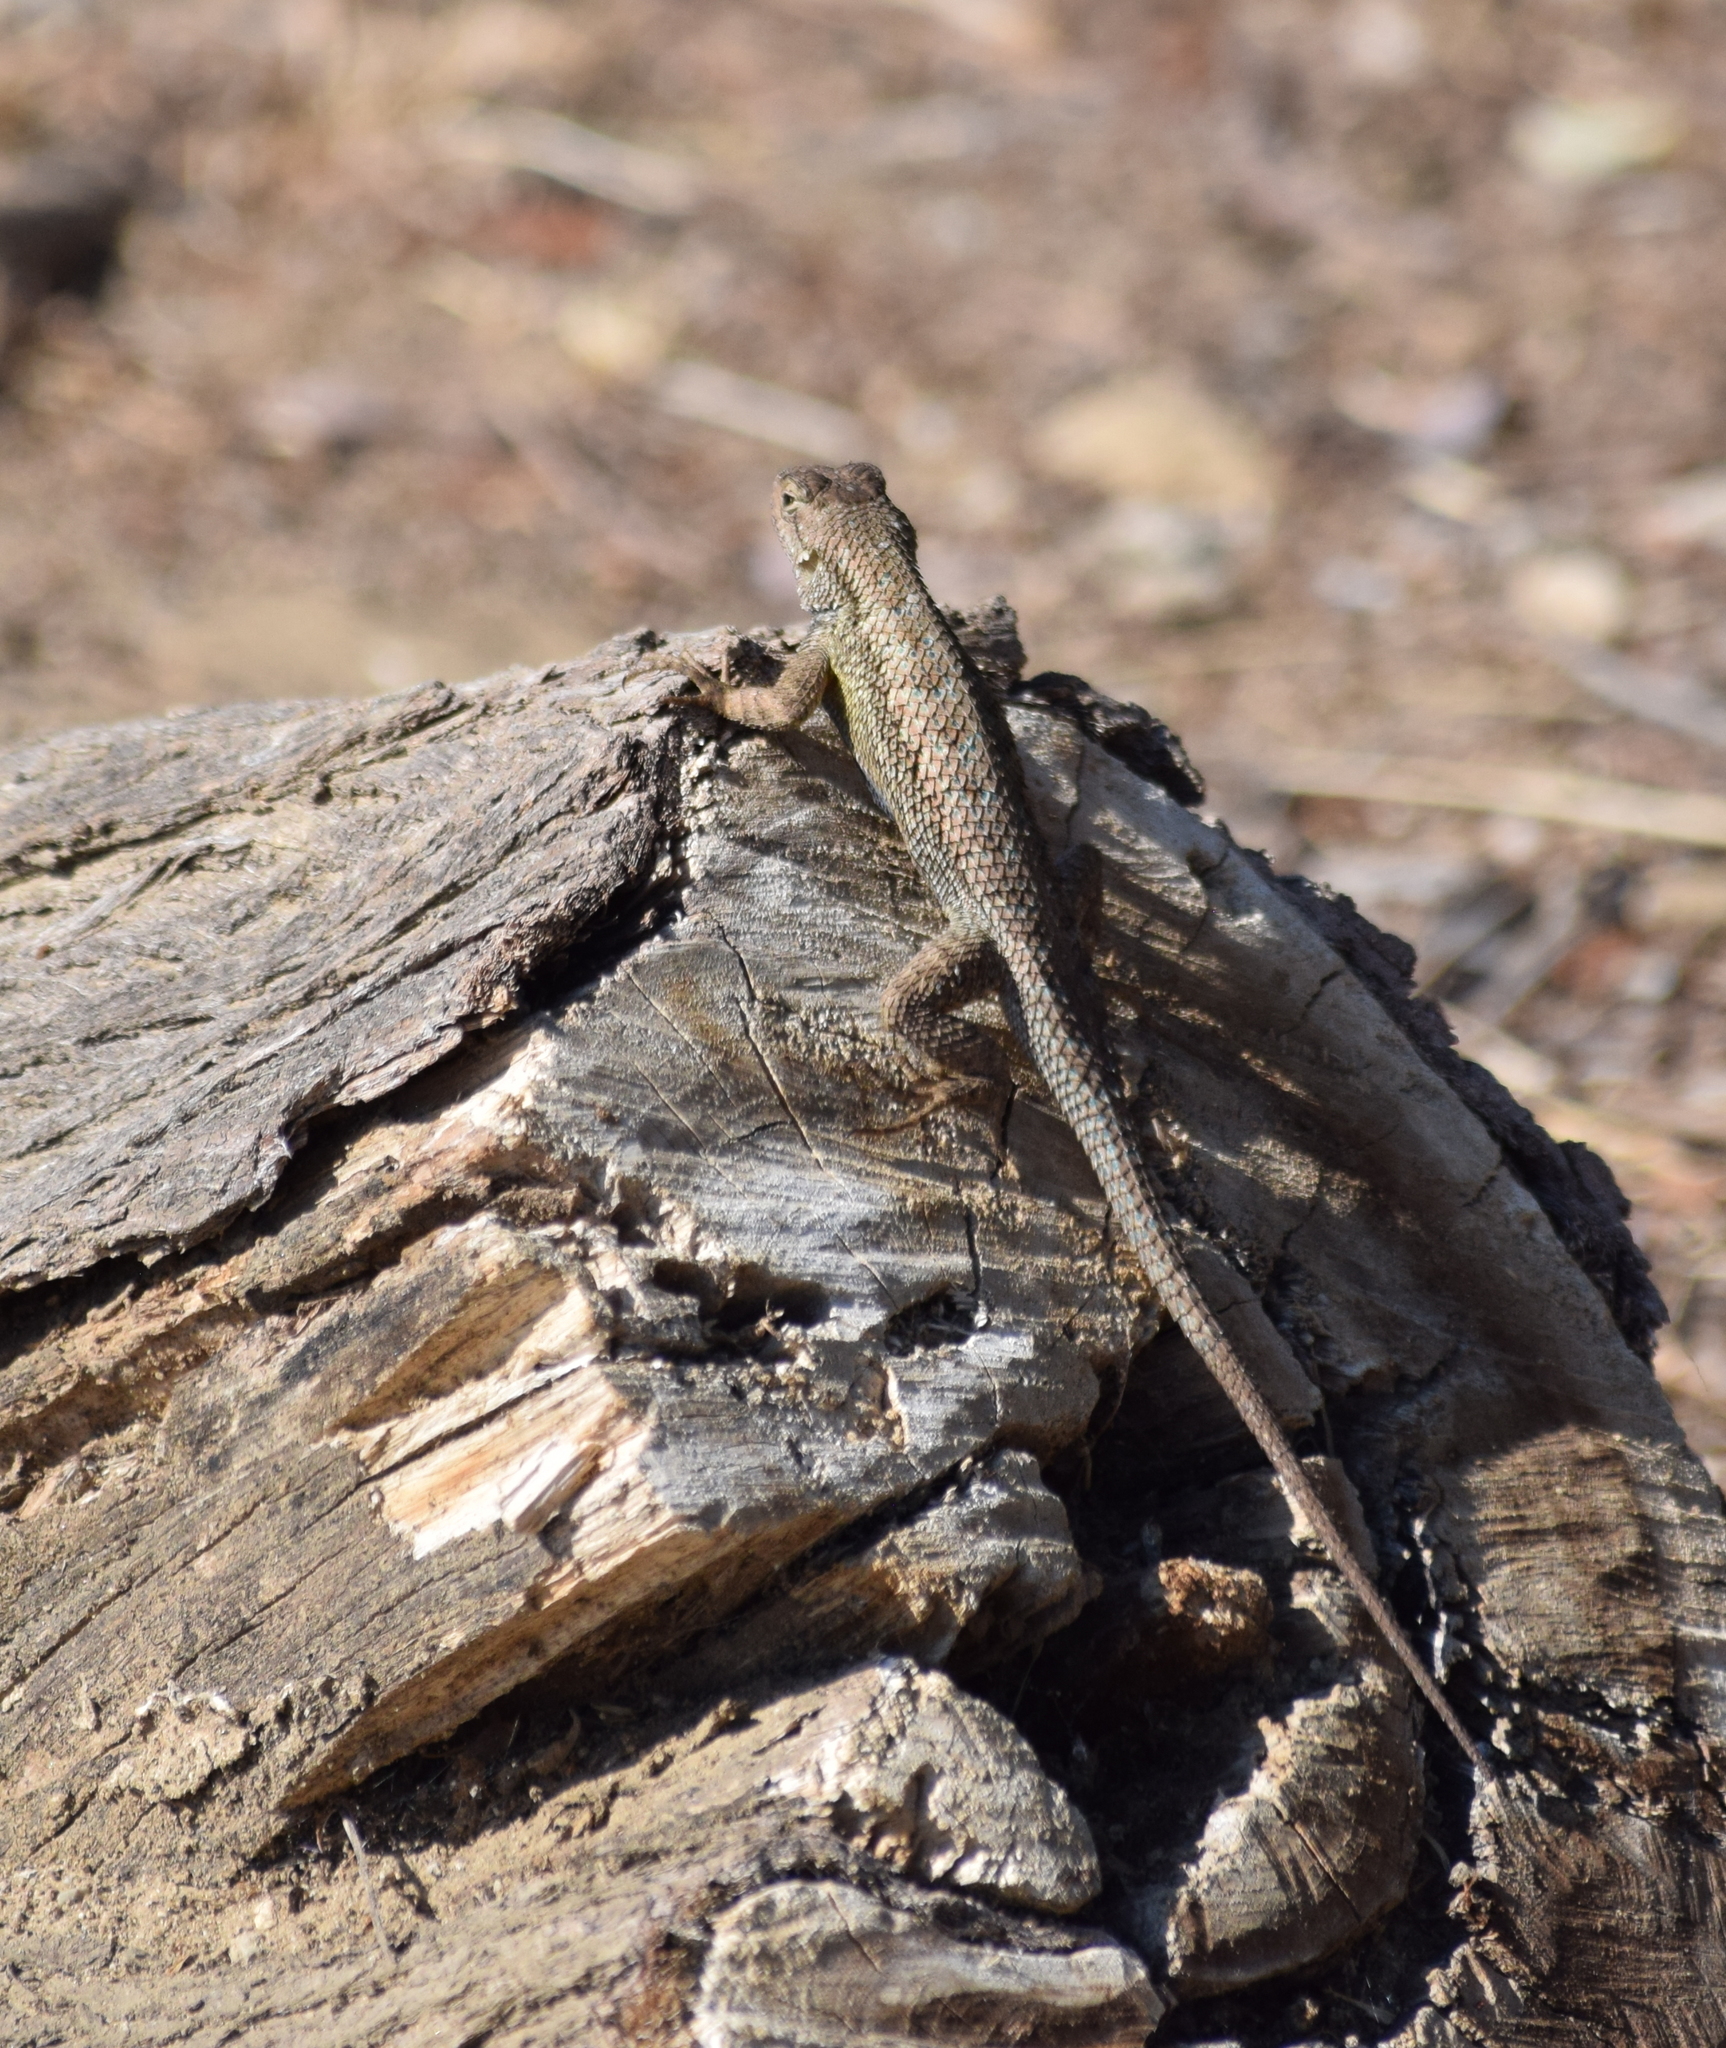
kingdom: Animalia
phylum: Chordata
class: Squamata
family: Phrynosomatidae
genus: Sceloporus
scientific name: Sceloporus occidentalis
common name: Western fence lizard
